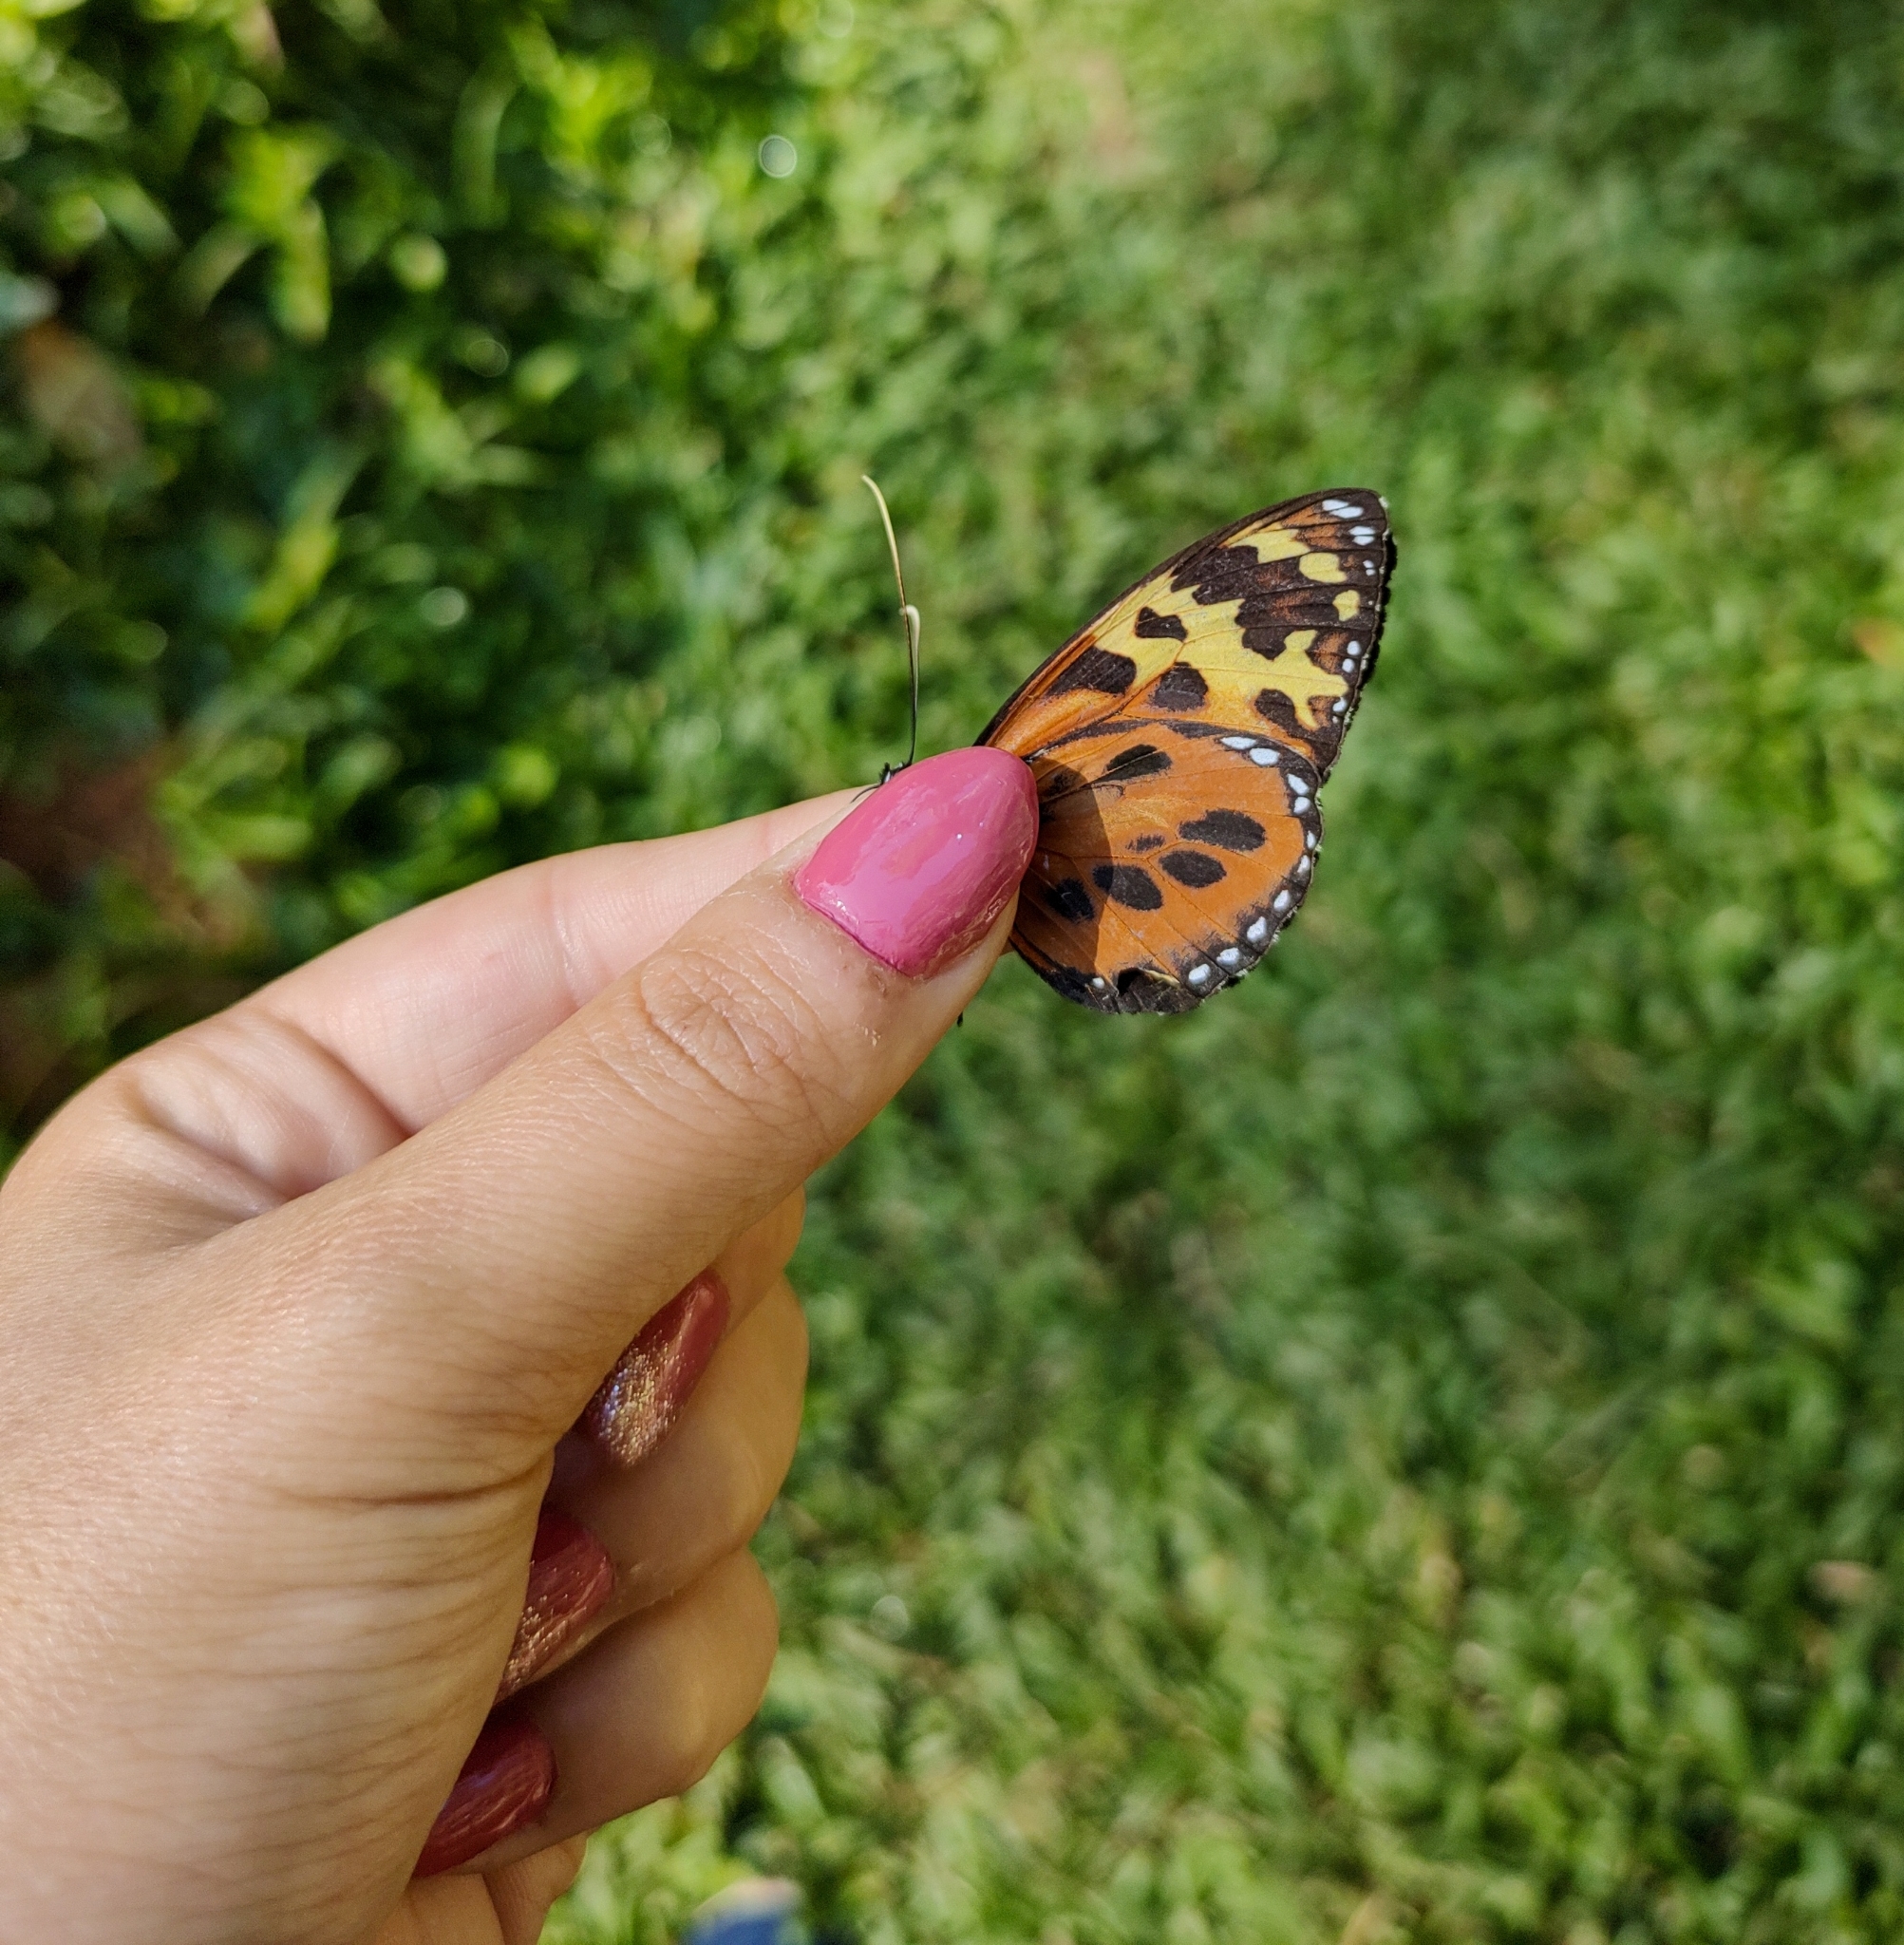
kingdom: Animalia
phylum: Arthropoda
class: Insecta
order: Lepidoptera
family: Nymphalidae
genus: Tithorea
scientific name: Tithorea harmonia
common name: Harmonia tigerwing
